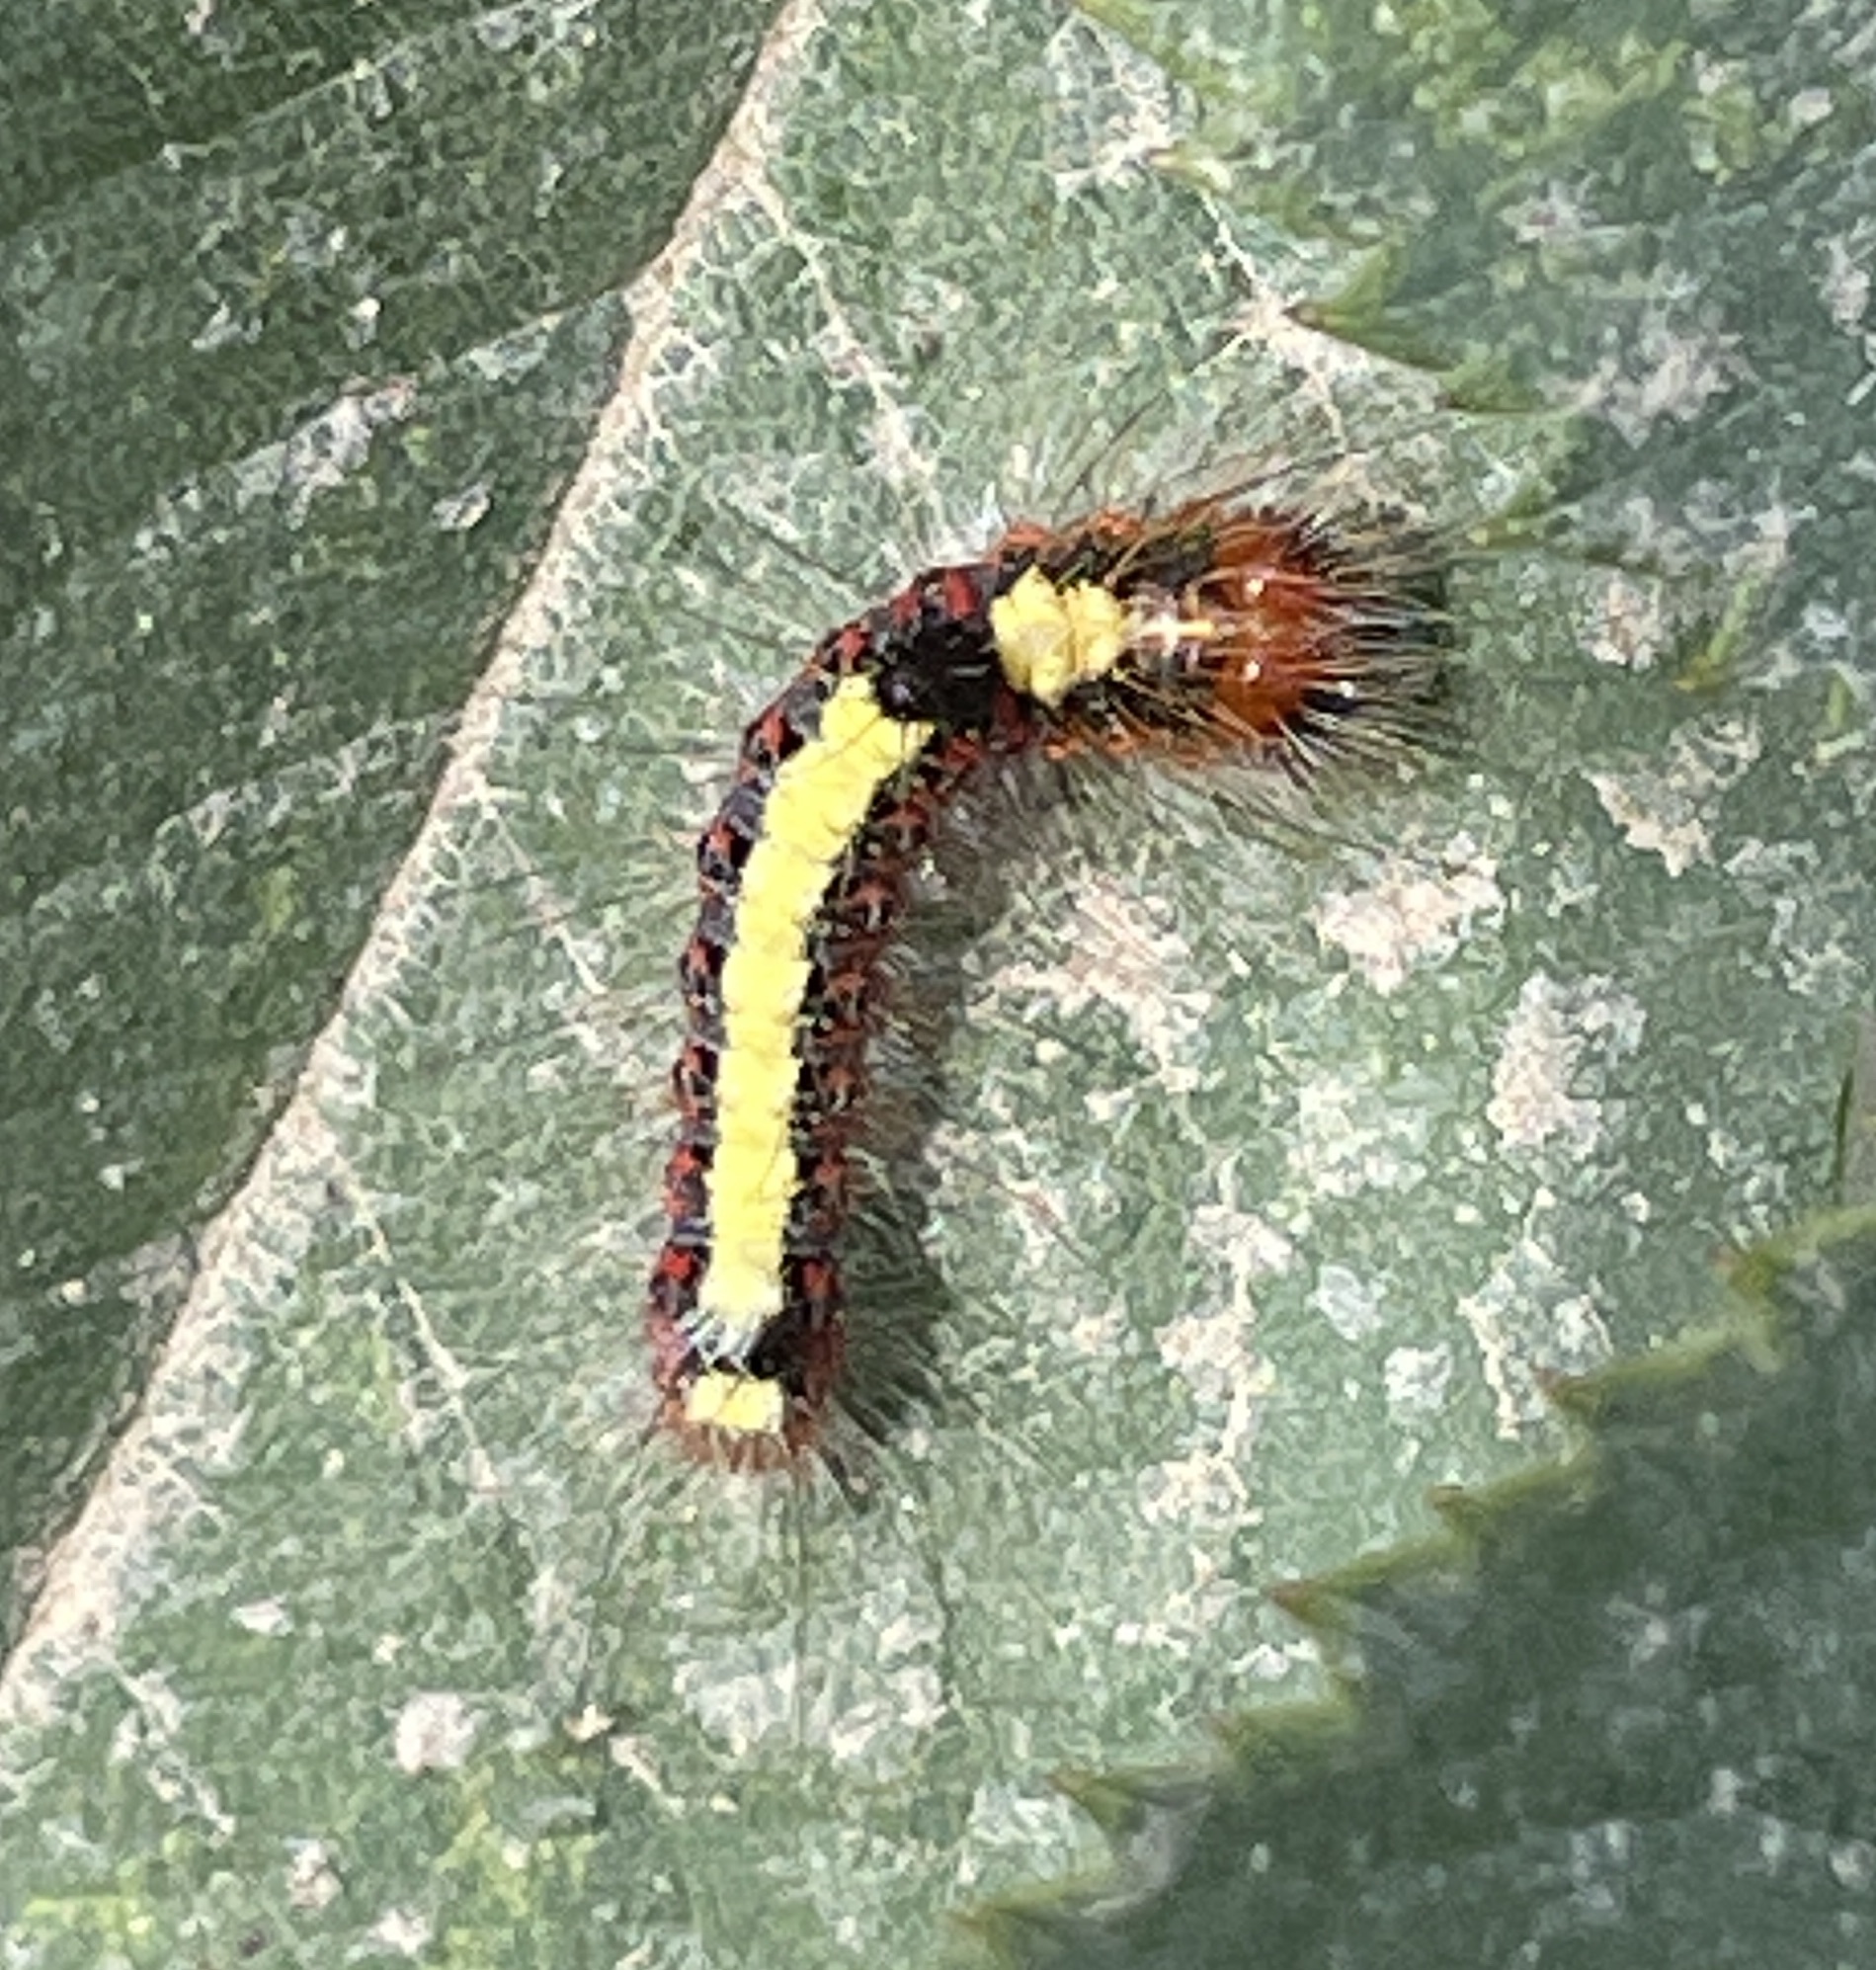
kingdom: Animalia
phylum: Arthropoda
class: Insecta
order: Lepidoptera
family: Noctuidae
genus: Acronicta
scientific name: Acronicta psi
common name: Grey dagger
